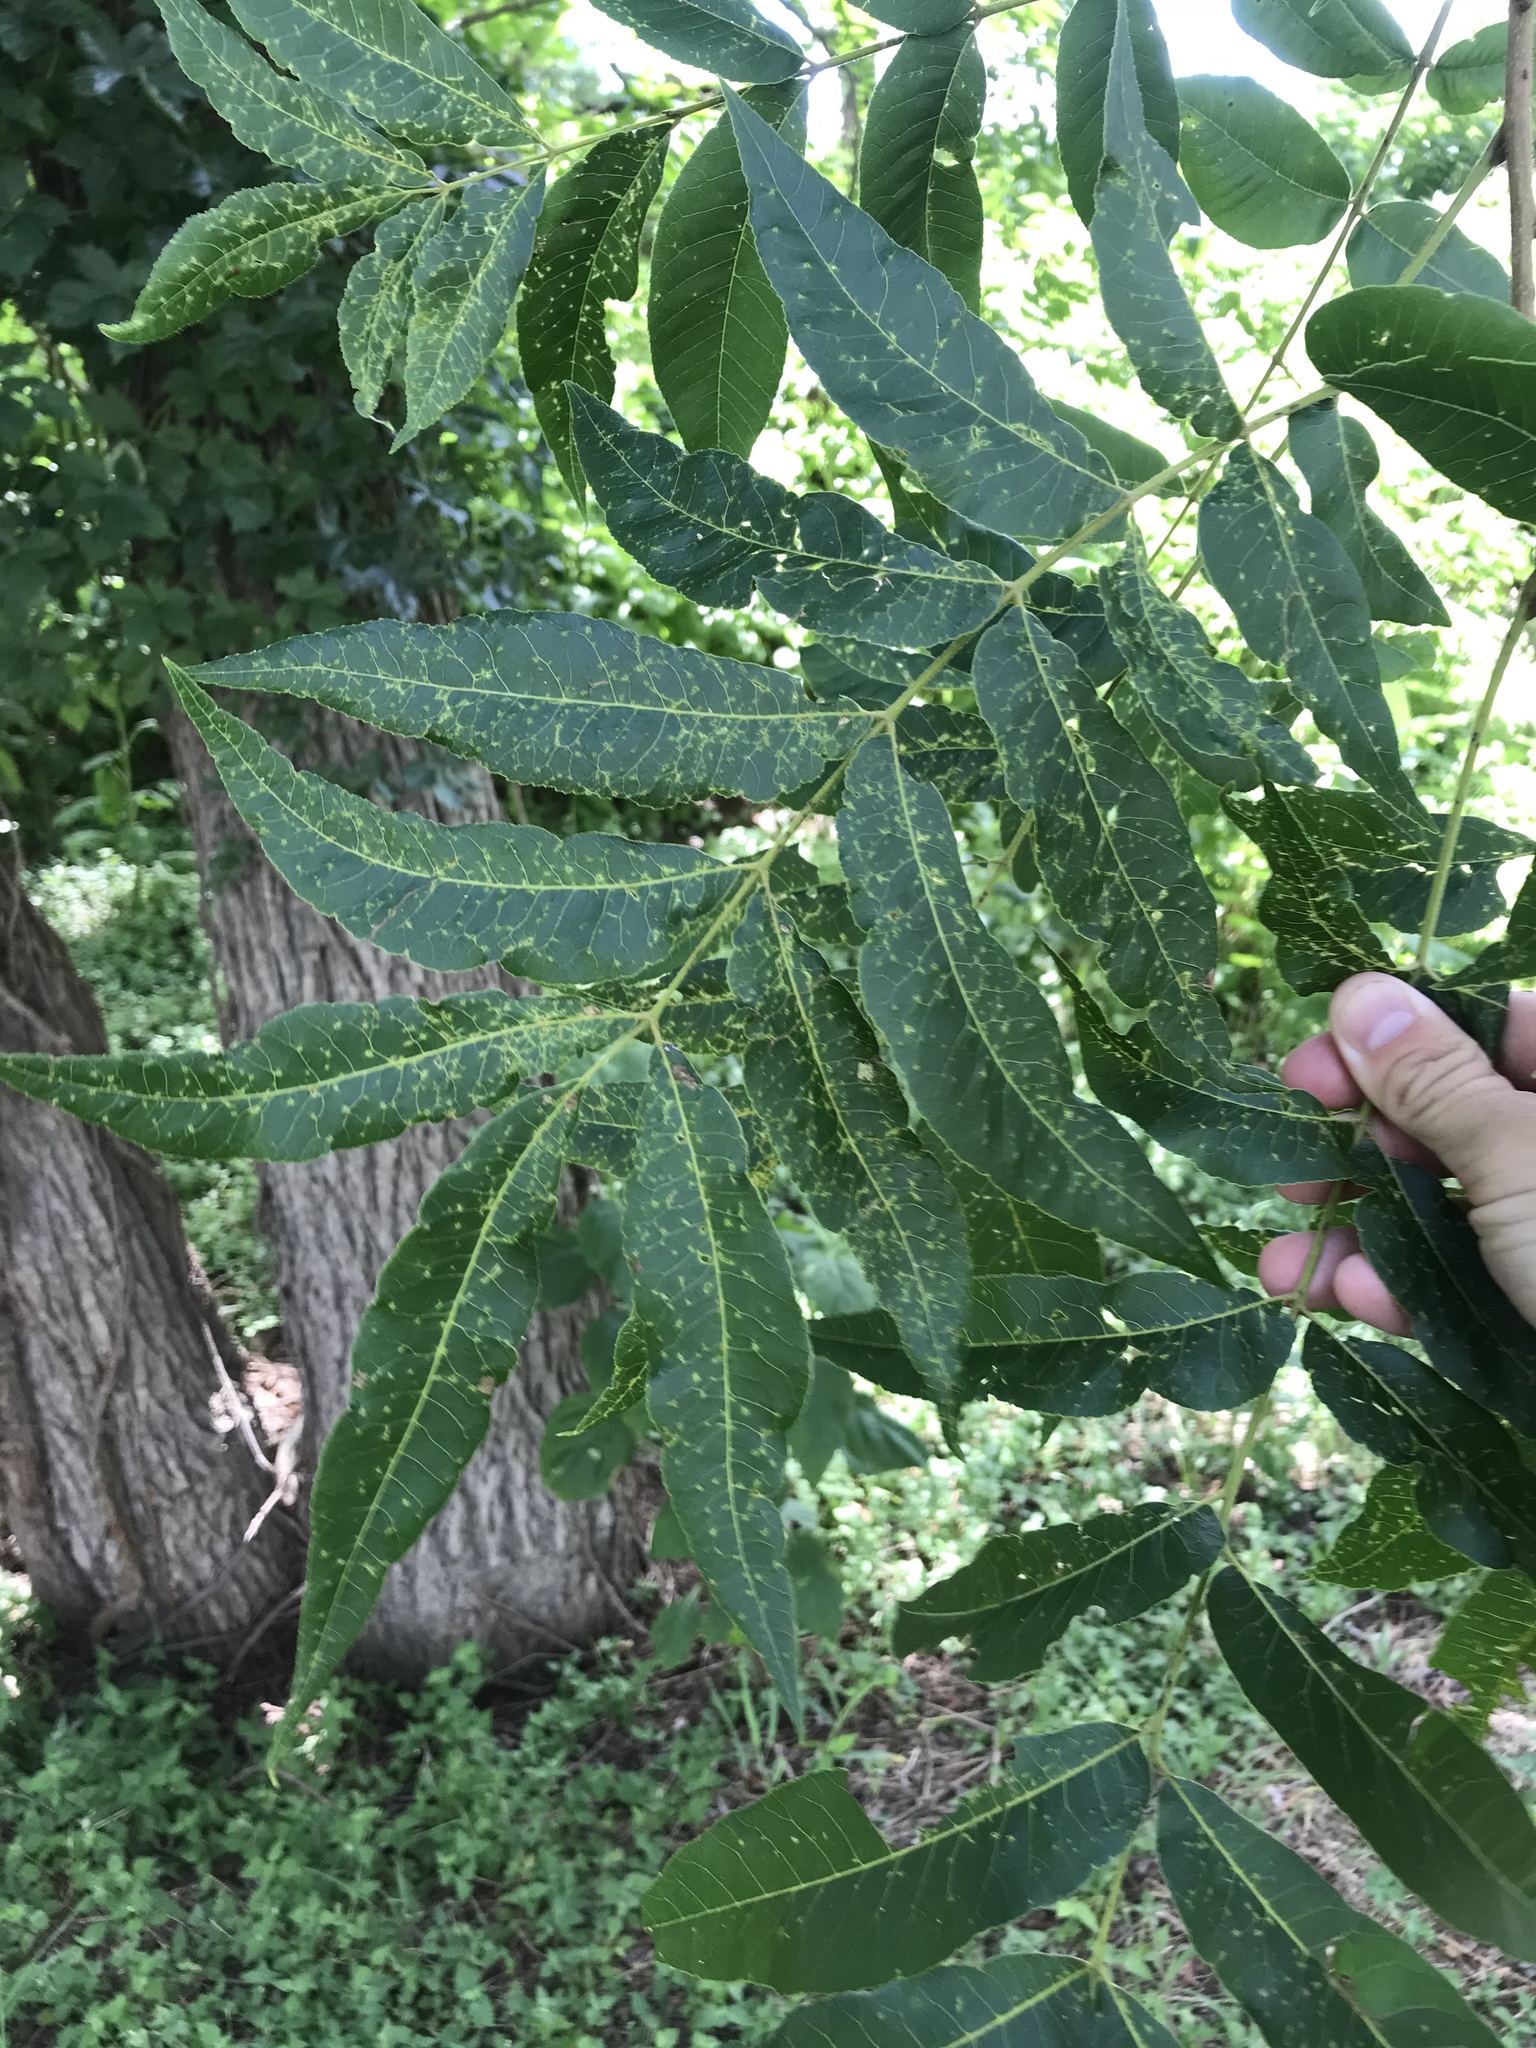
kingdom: Plantae
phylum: Tracheophyta
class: Magnoliopsida
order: Fagales
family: Juglandaceae
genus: Carya
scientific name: Carya illinoinensis
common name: Pecan
